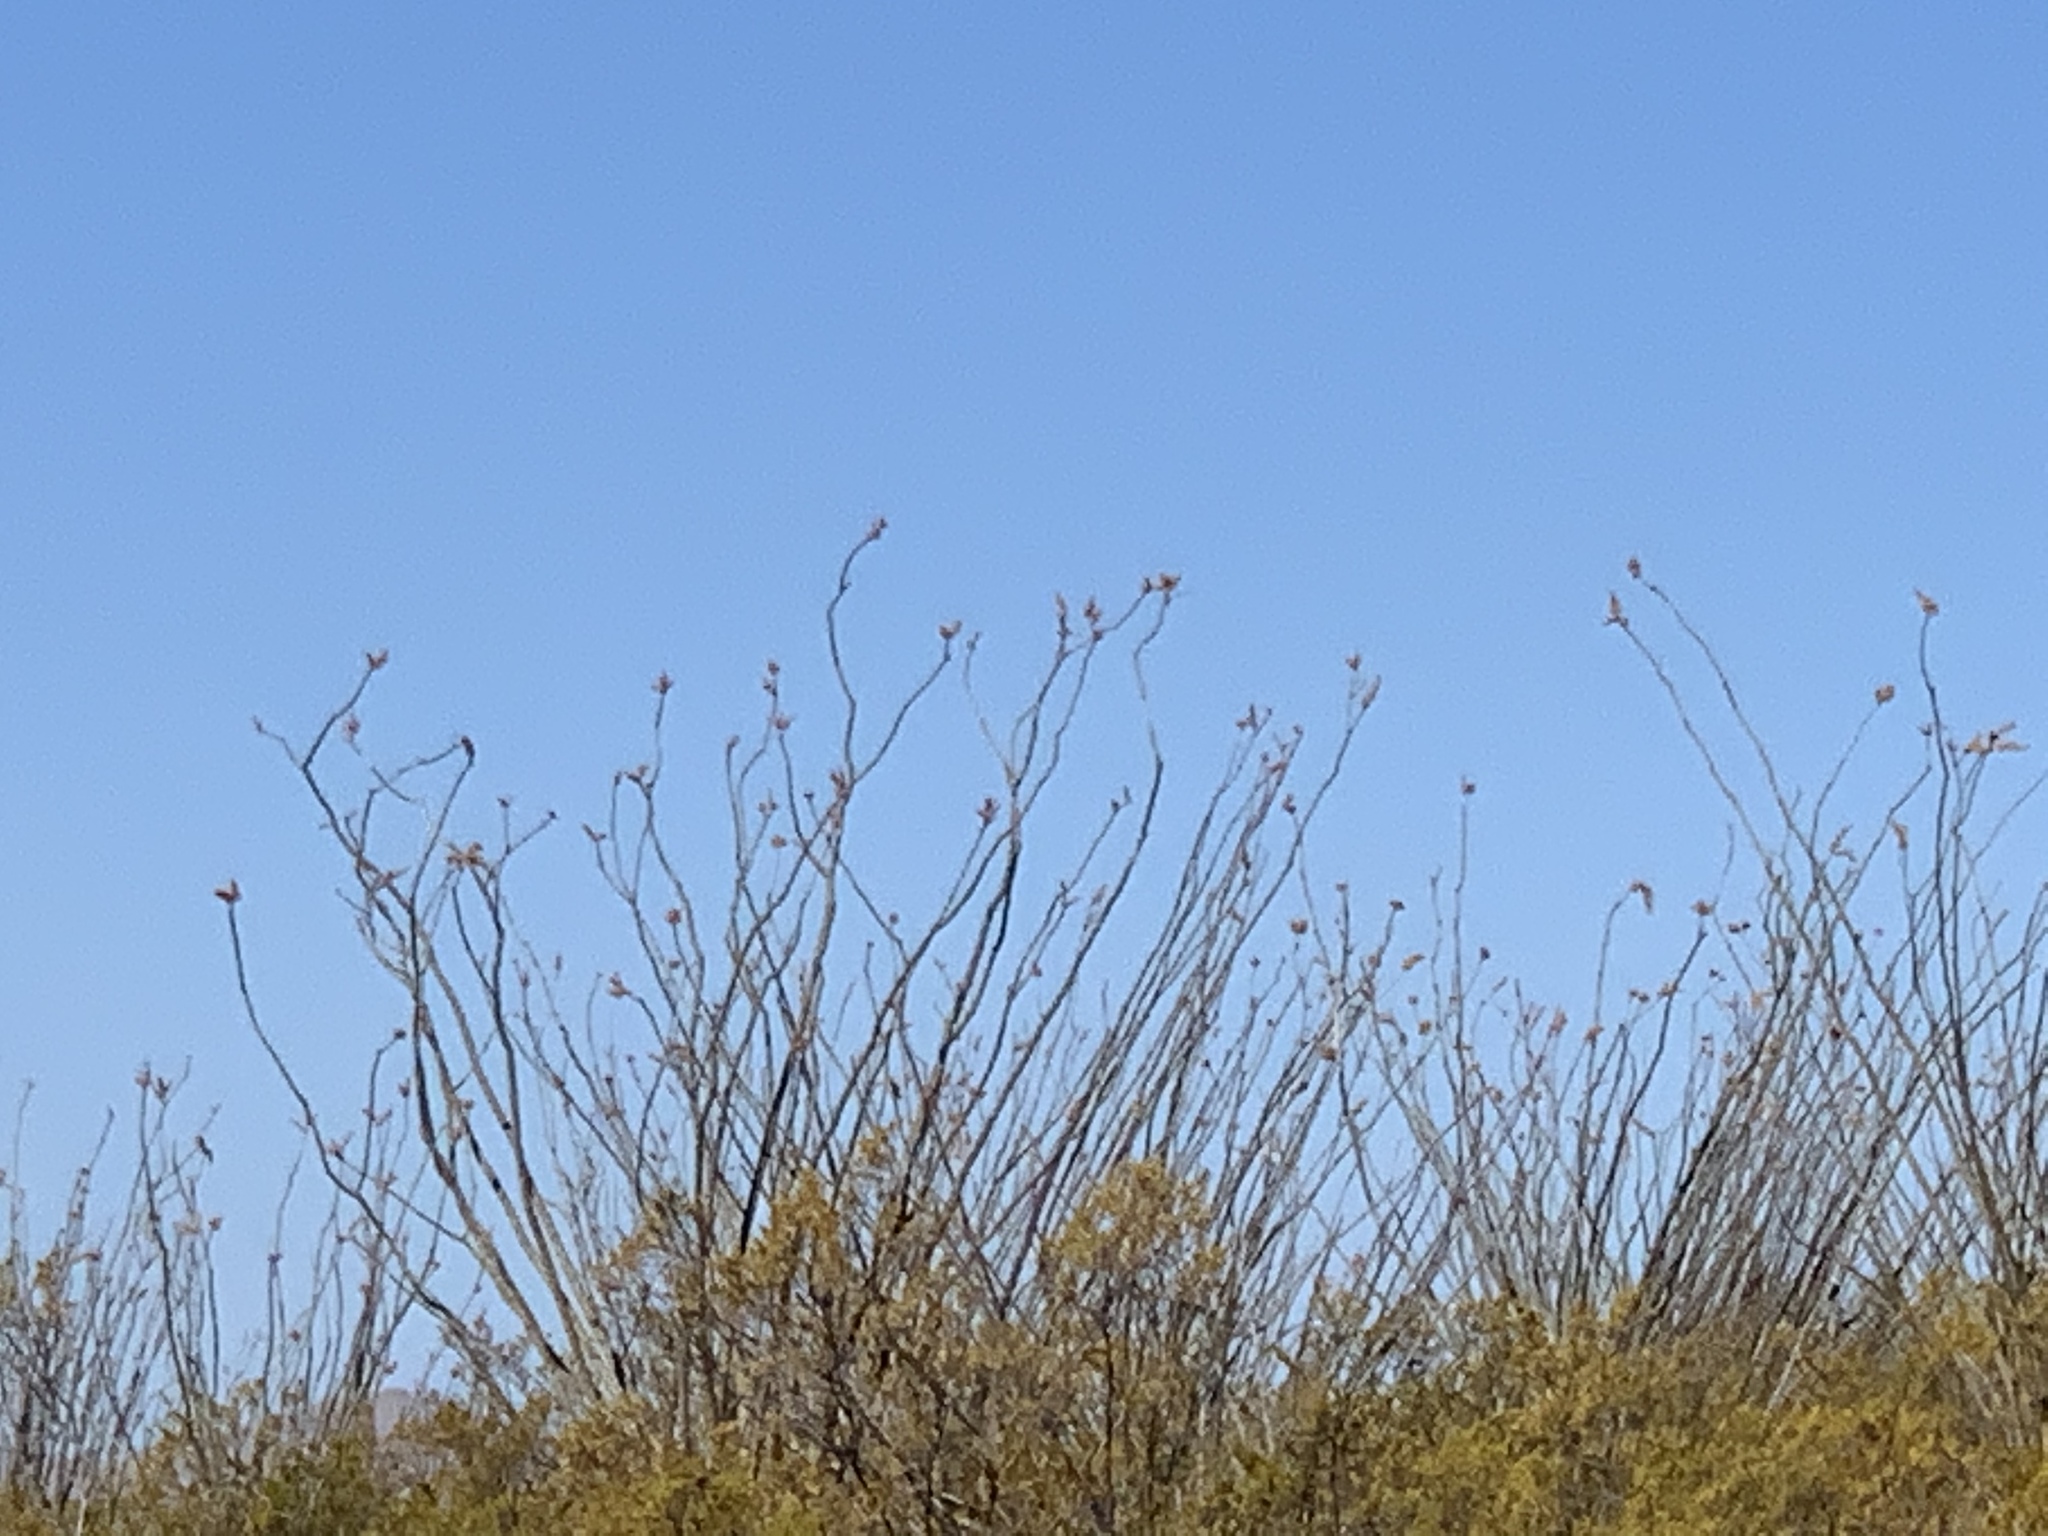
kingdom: Plantae
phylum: Tracheophyta
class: Magnoliopsida
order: Ericales
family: Fouquieriaceae
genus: Fouquieria
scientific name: Fouquieria splendens
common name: Vine-cactus
